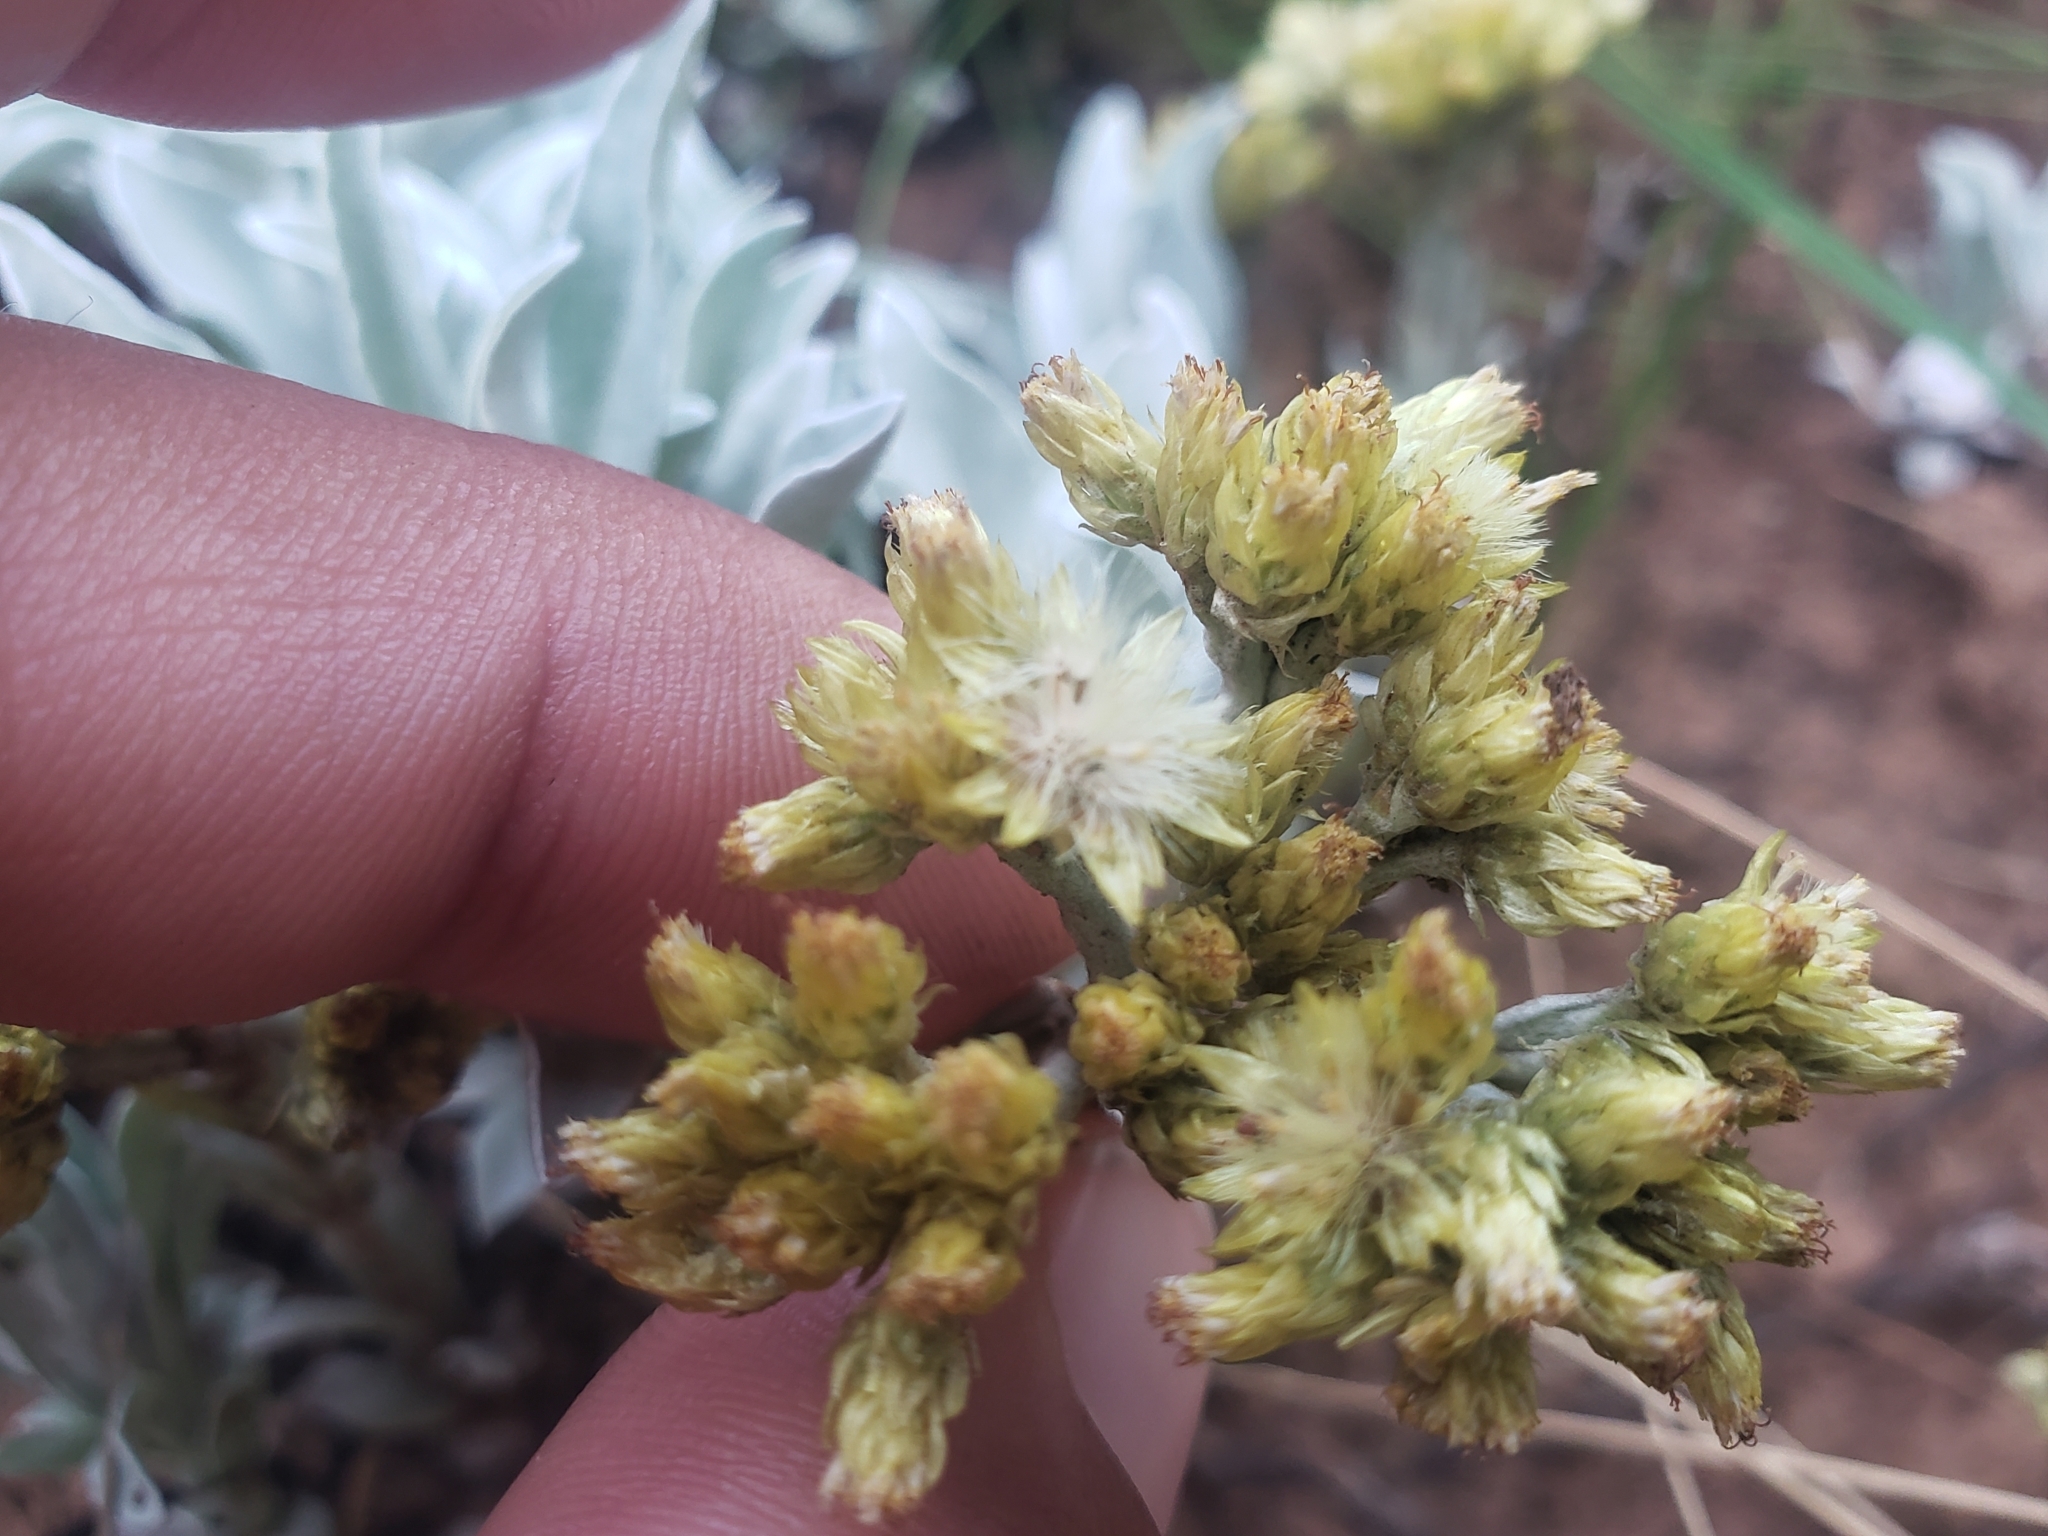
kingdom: Plantae
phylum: Tracheophyta
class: Magnoliopsida
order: Asterales
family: Asteraceae
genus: Helichrysum
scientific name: Helichrysum oreophilum
